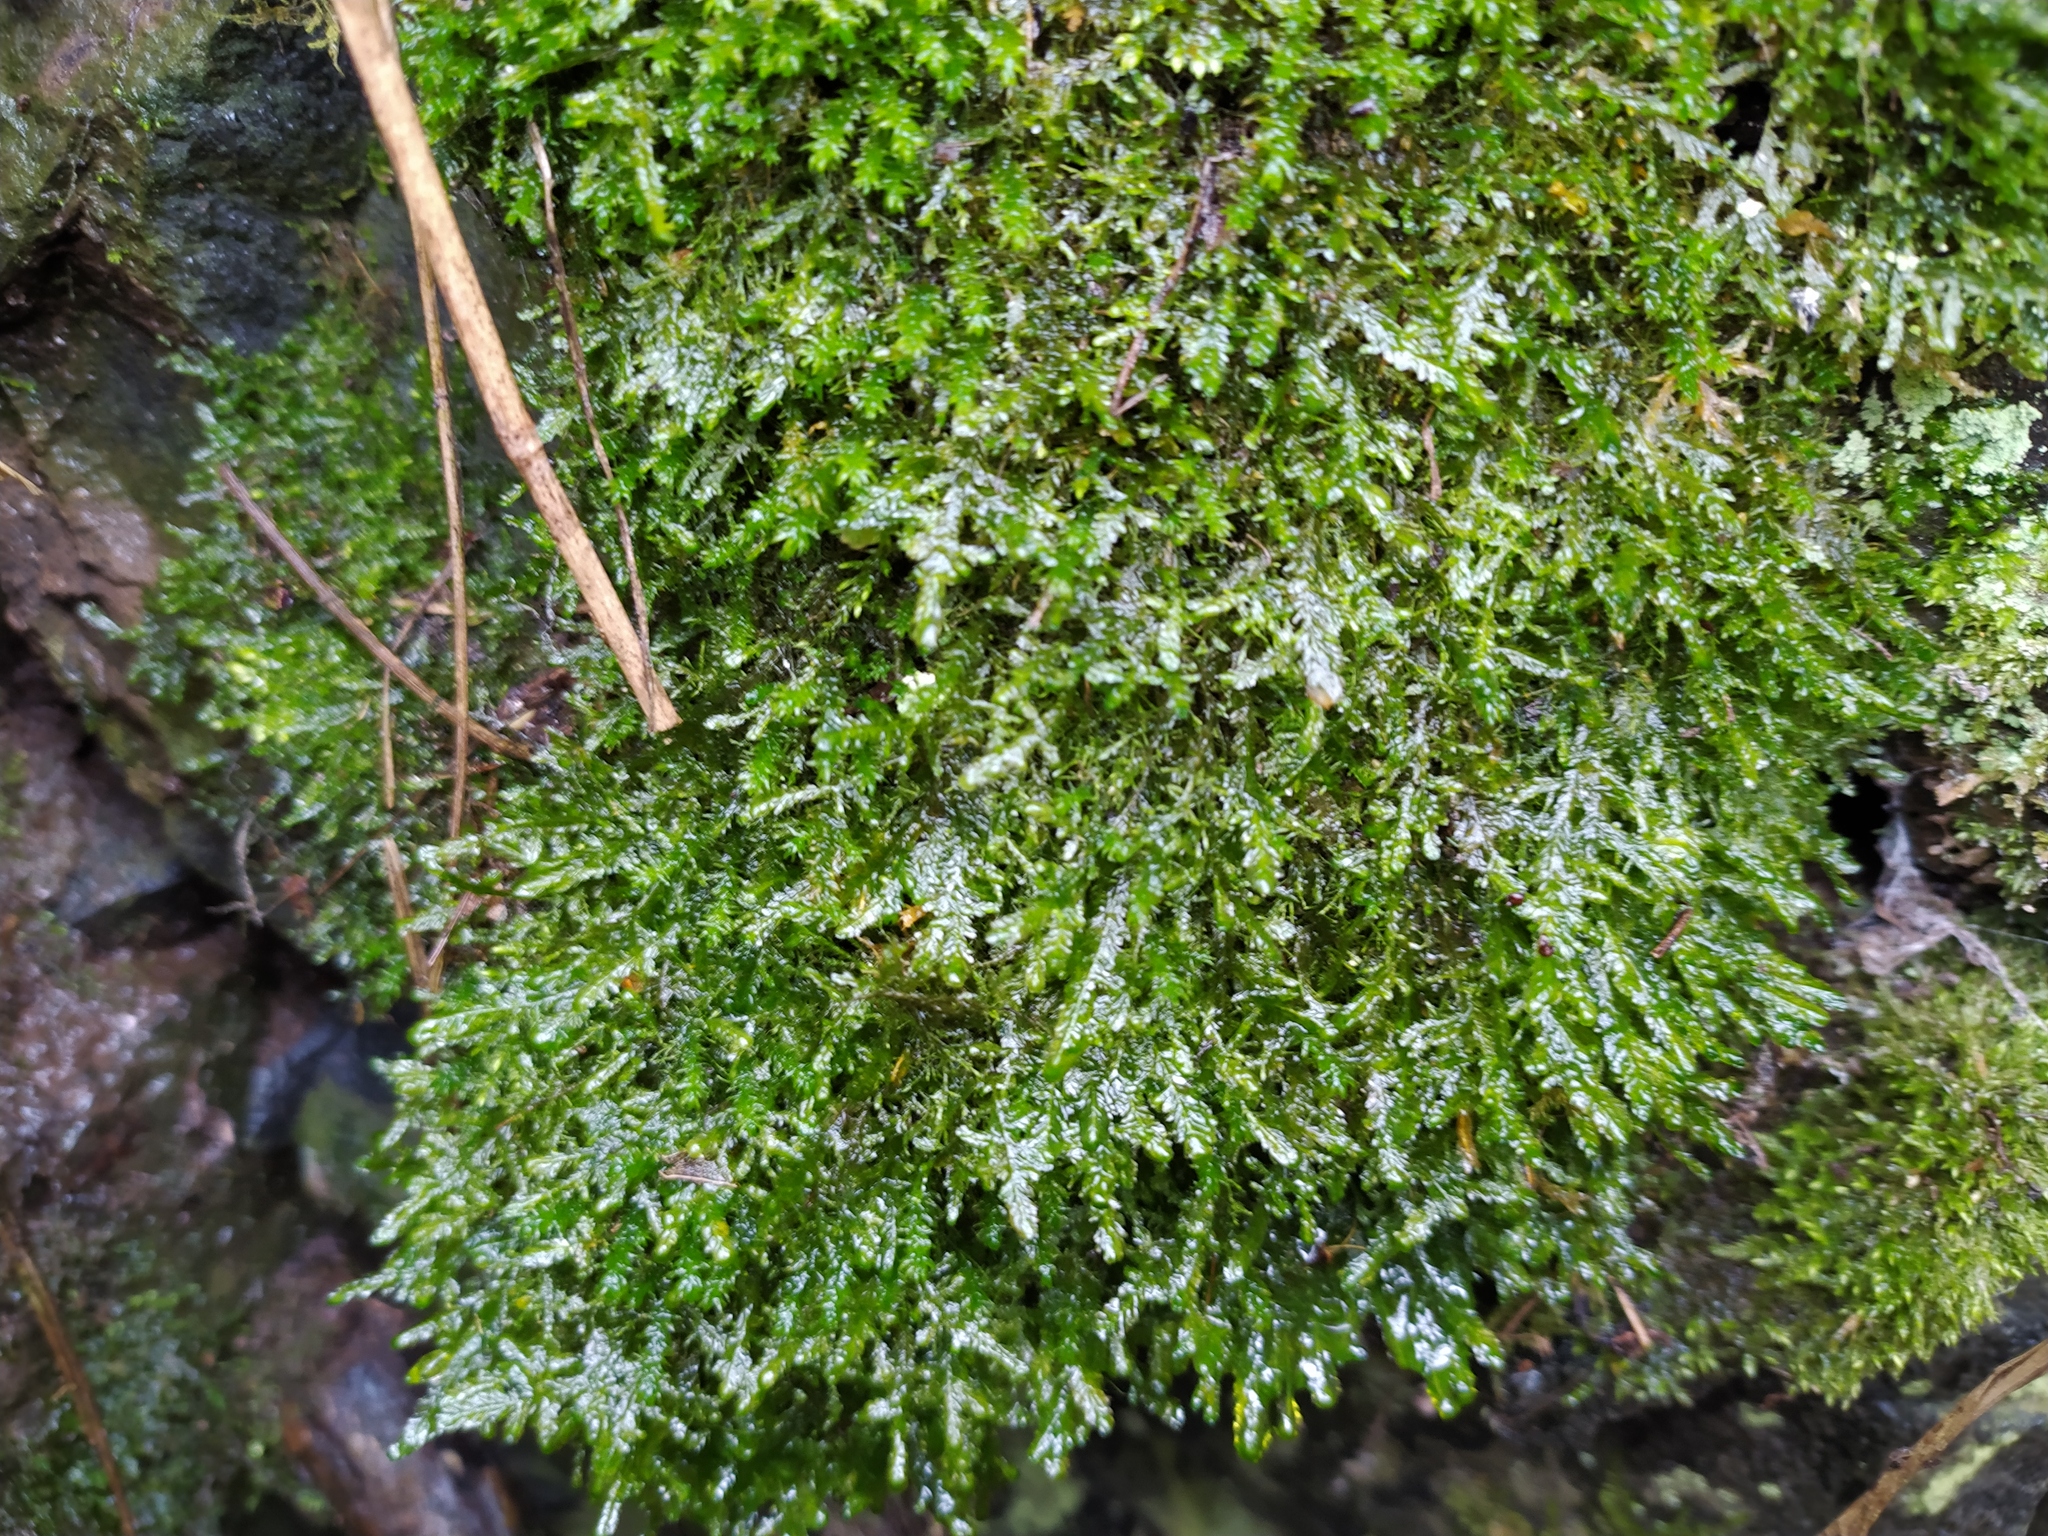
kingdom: Plantae
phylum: Bryophyta
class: Bryopsida
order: Hypnales
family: Neckeraceae
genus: Alleniella
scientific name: Alleniella complanata
